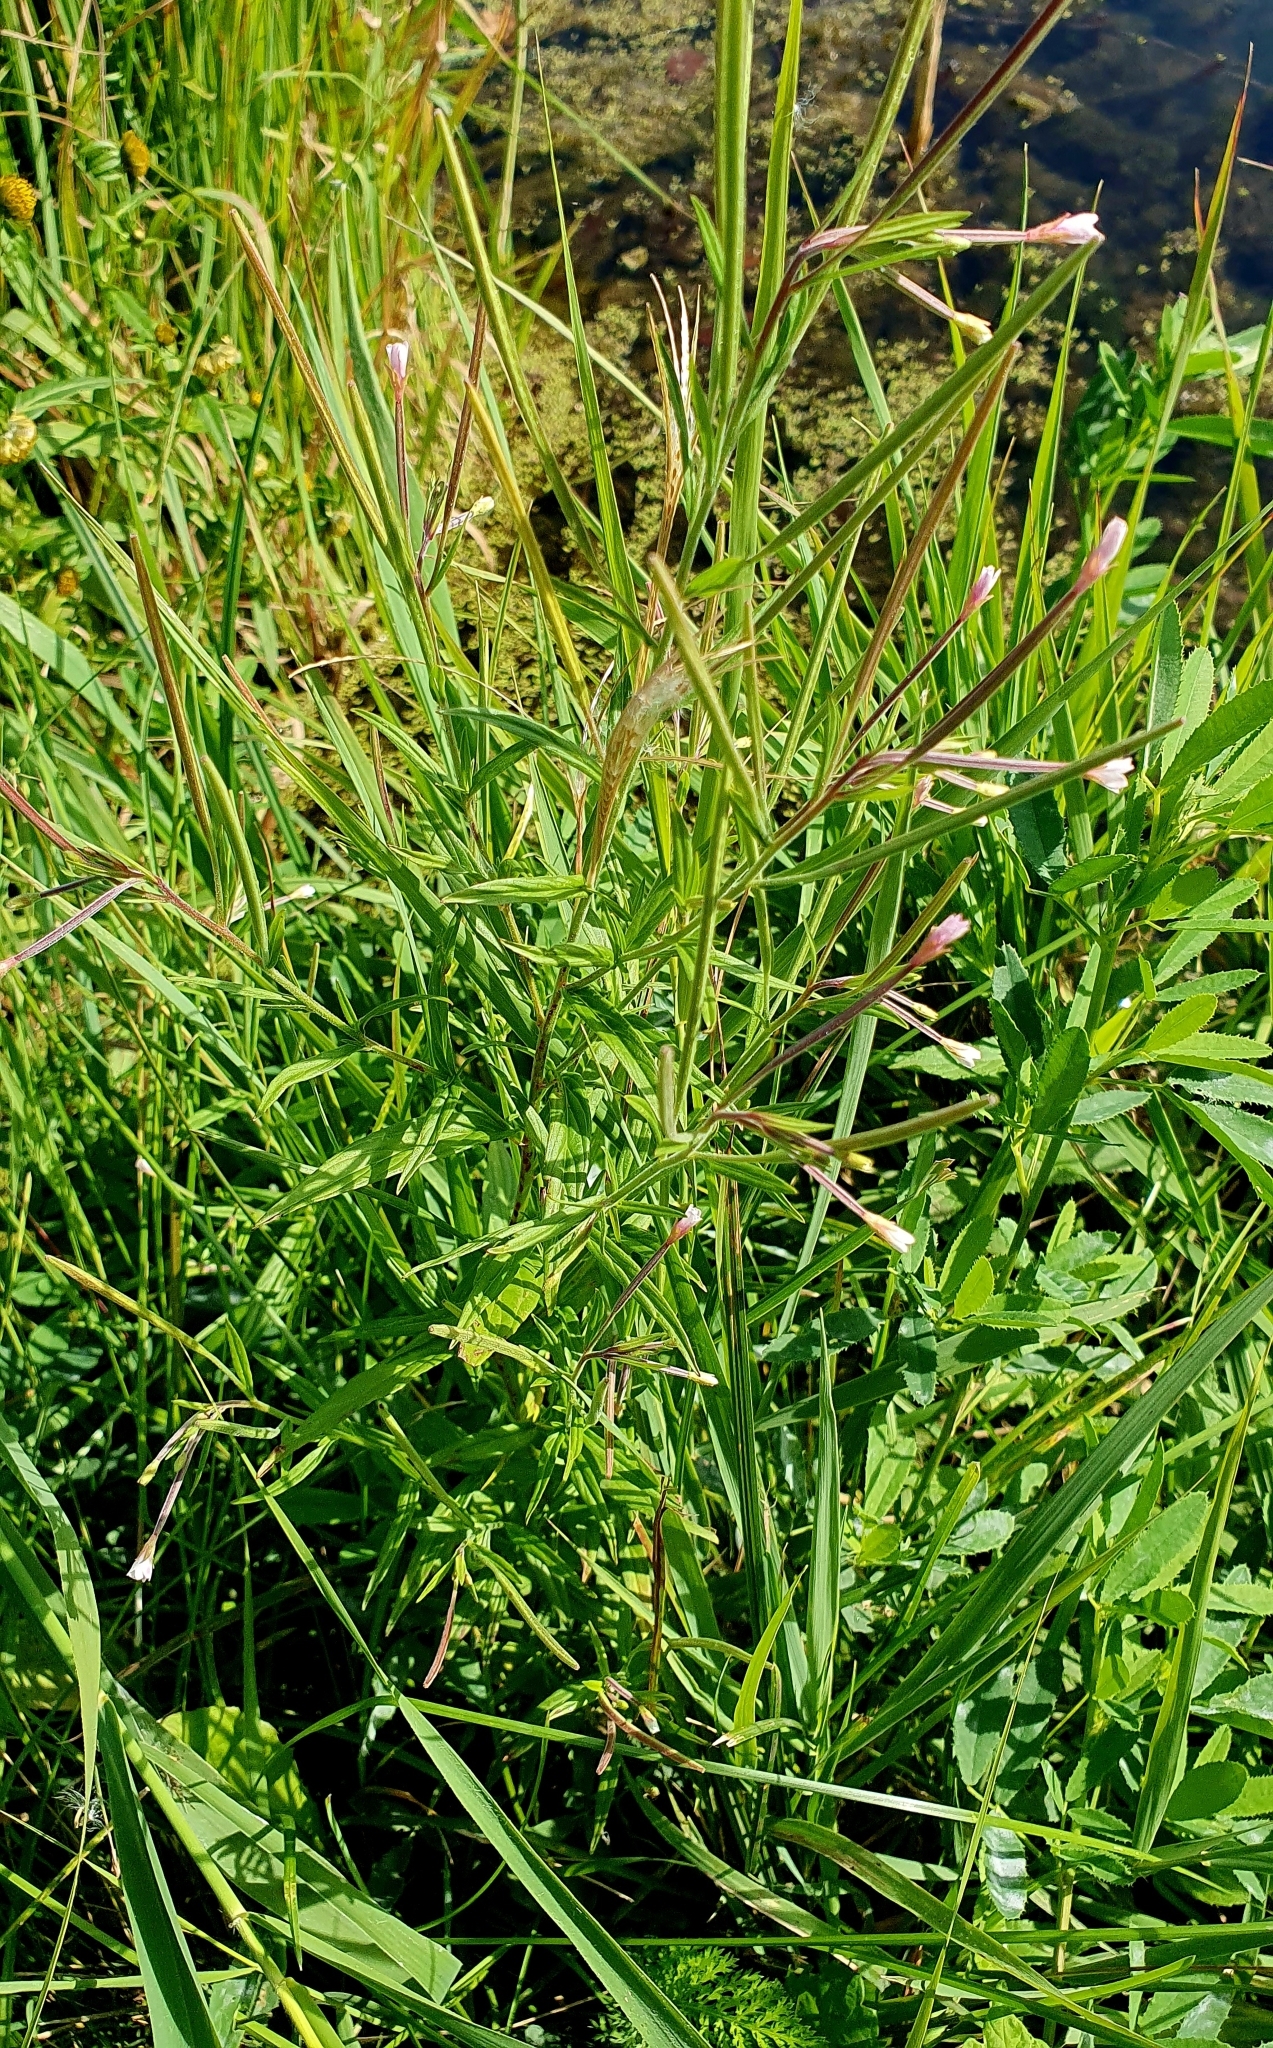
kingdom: Plantae
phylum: Tracheophyta
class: Magnoliopsida
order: Myrtales
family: Onagraceae
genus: Epilobium
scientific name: Epilobium palustre
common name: Marsh willowherb
